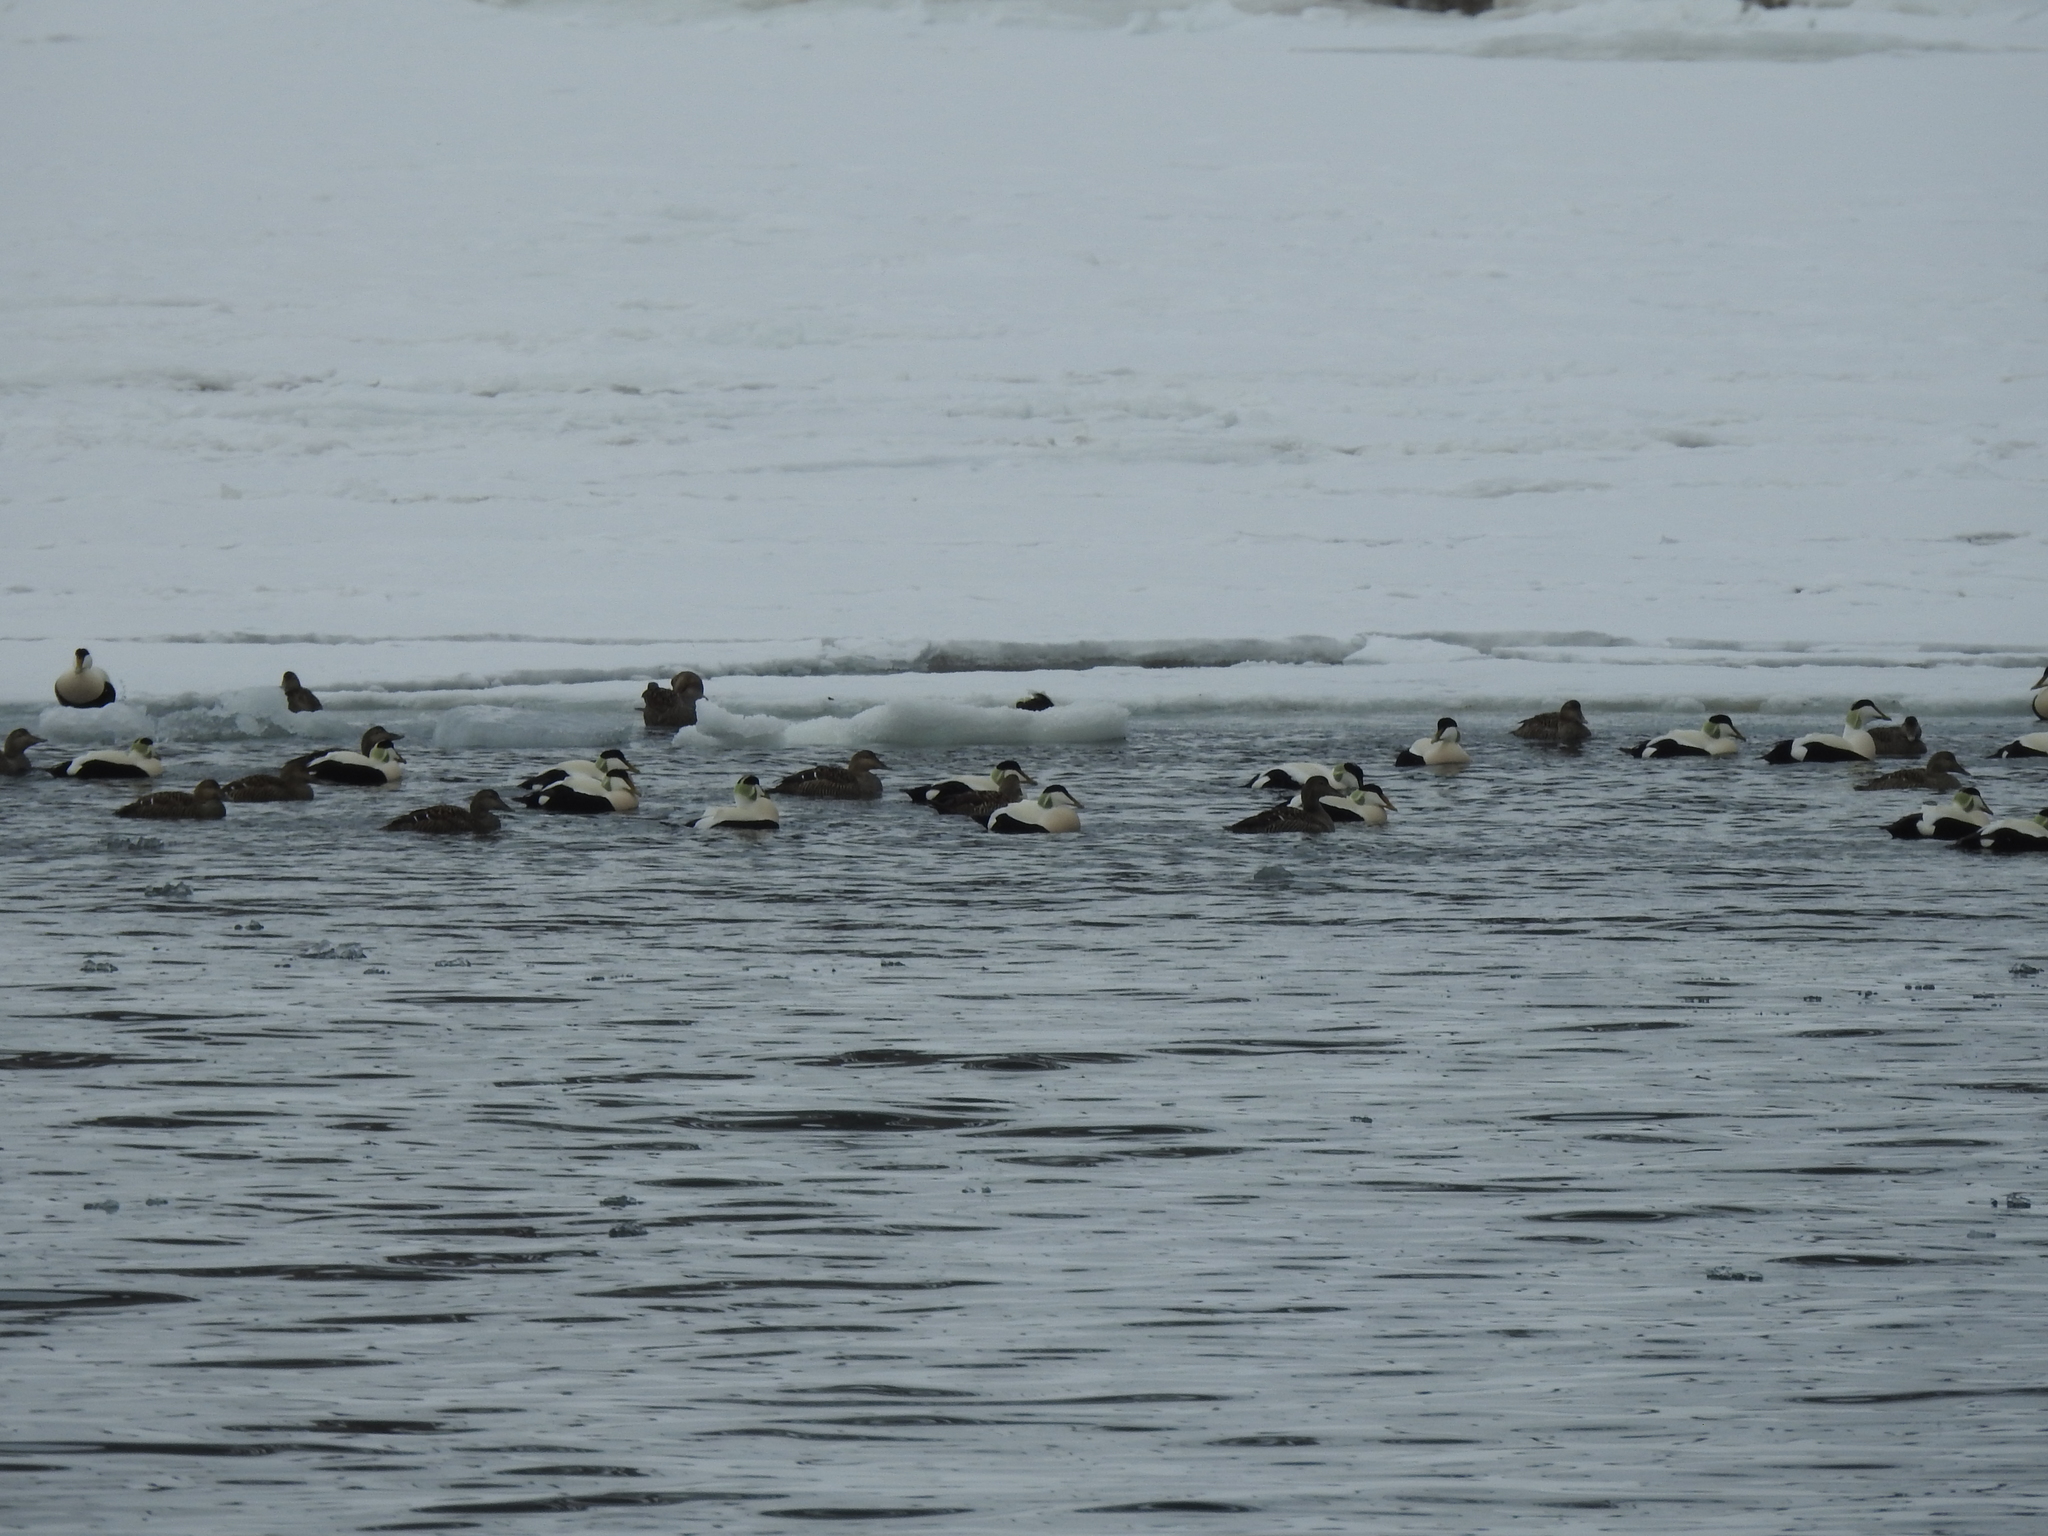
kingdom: Animalia
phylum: Chordata
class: Aves
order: Anseriformes
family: Anatidae
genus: Somateria
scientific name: Somateria mollissima
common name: Common eider
